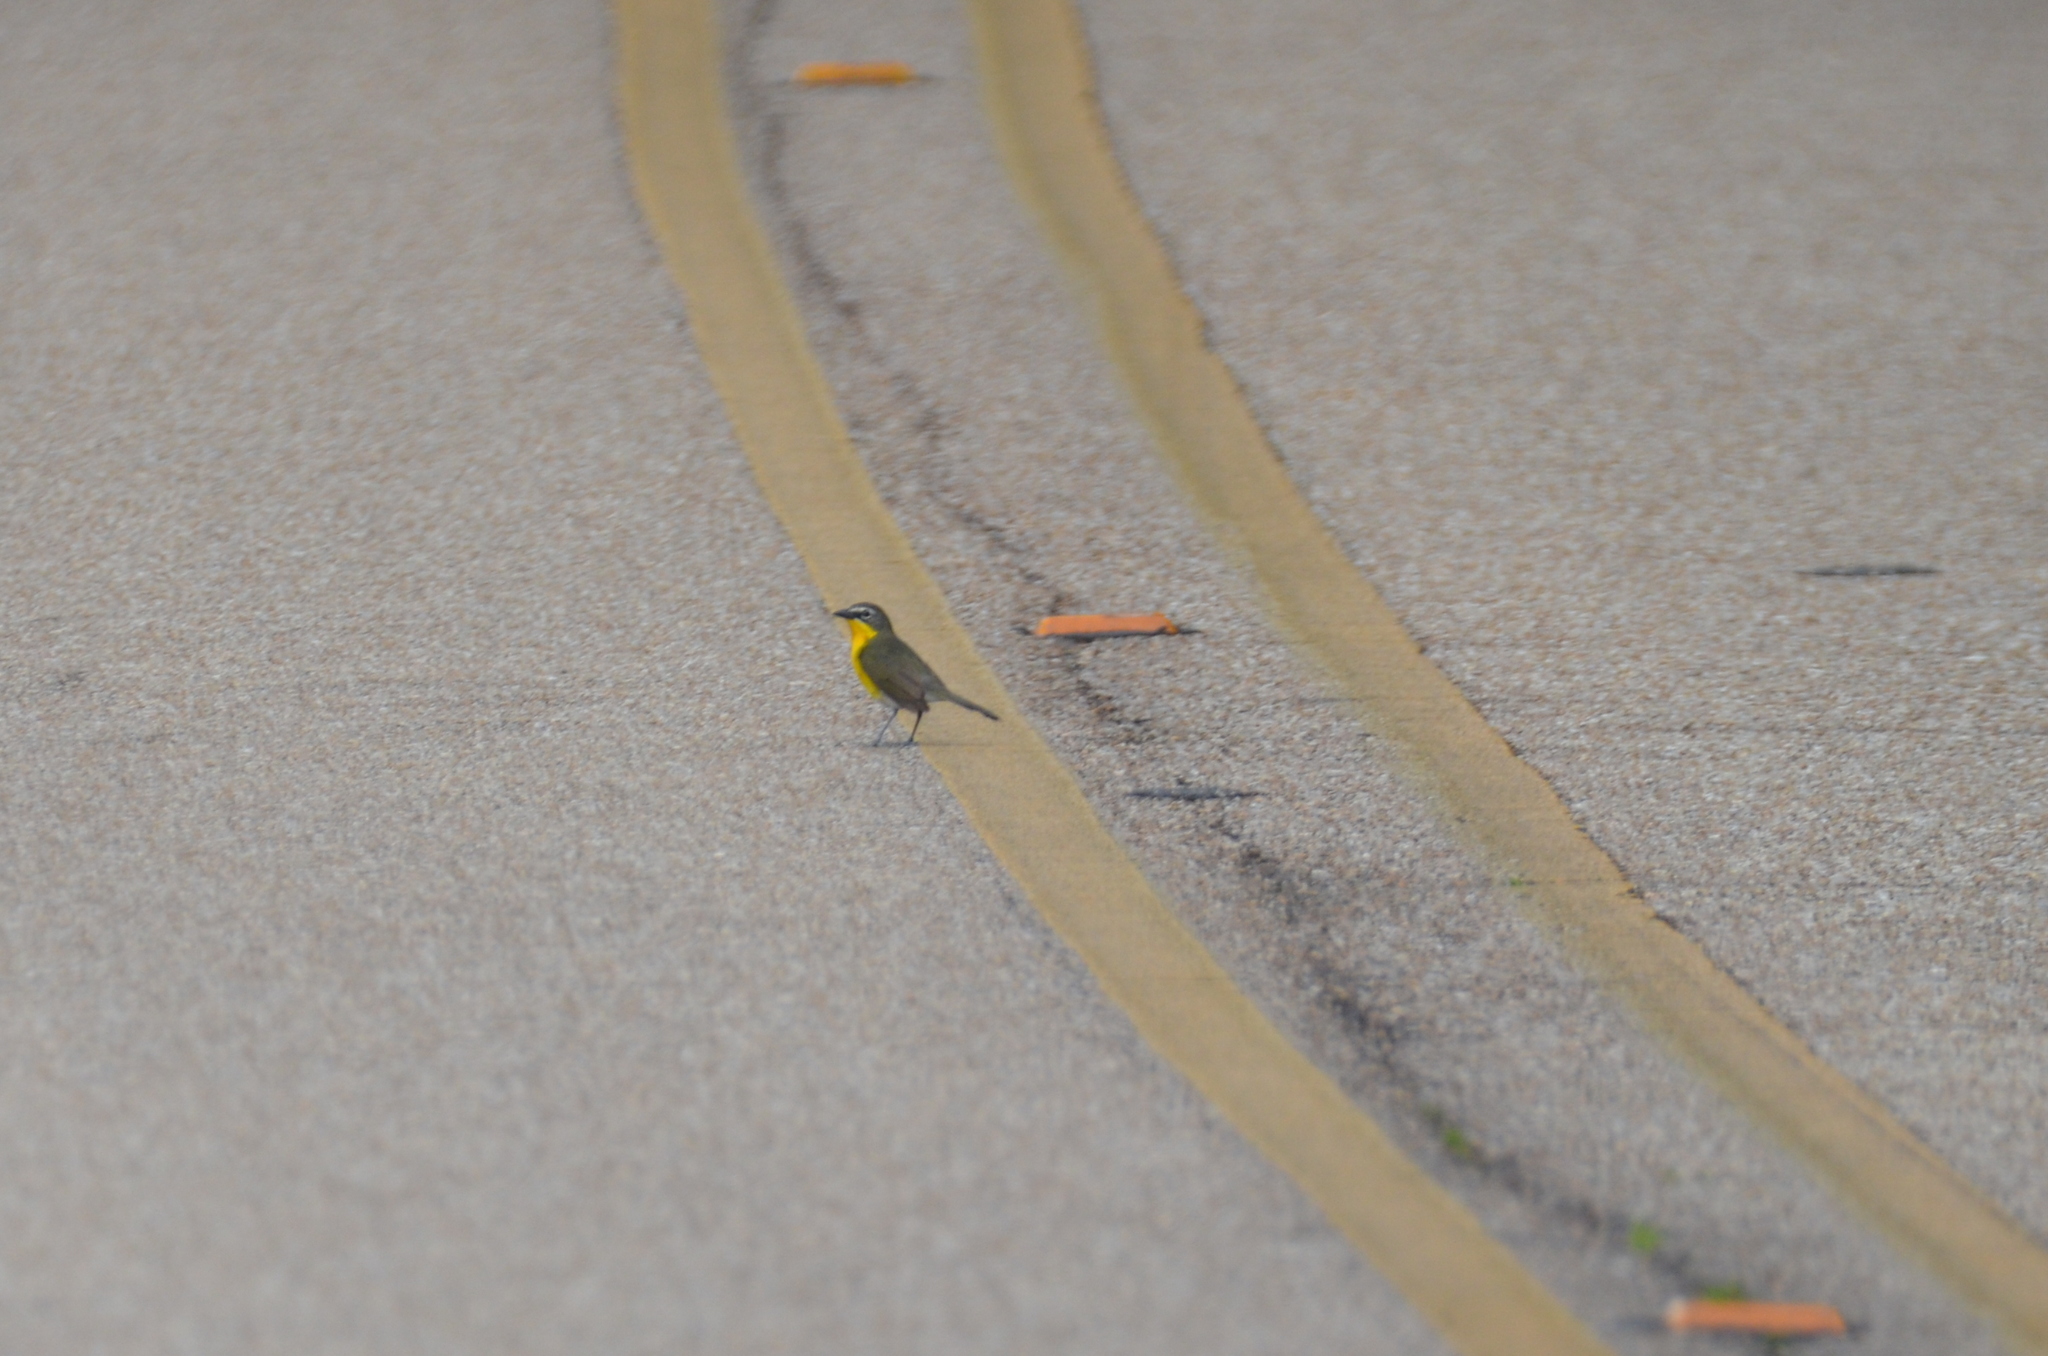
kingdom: Animalia
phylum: Chordata
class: Aves
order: Passeriformes
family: Parulidae
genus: Icteria
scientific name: Icteria virens
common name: Yellow-breasted chat
